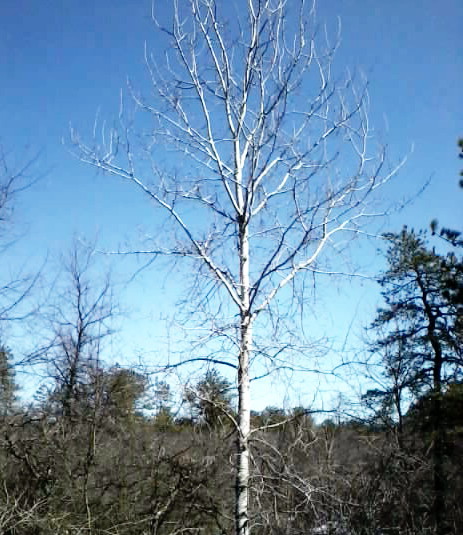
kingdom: Plantae
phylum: Tracheophyta
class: Magnoliopsida
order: Fagales
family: Betulaceae
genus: Betula
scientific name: Betula populifolia
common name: Fire birch
